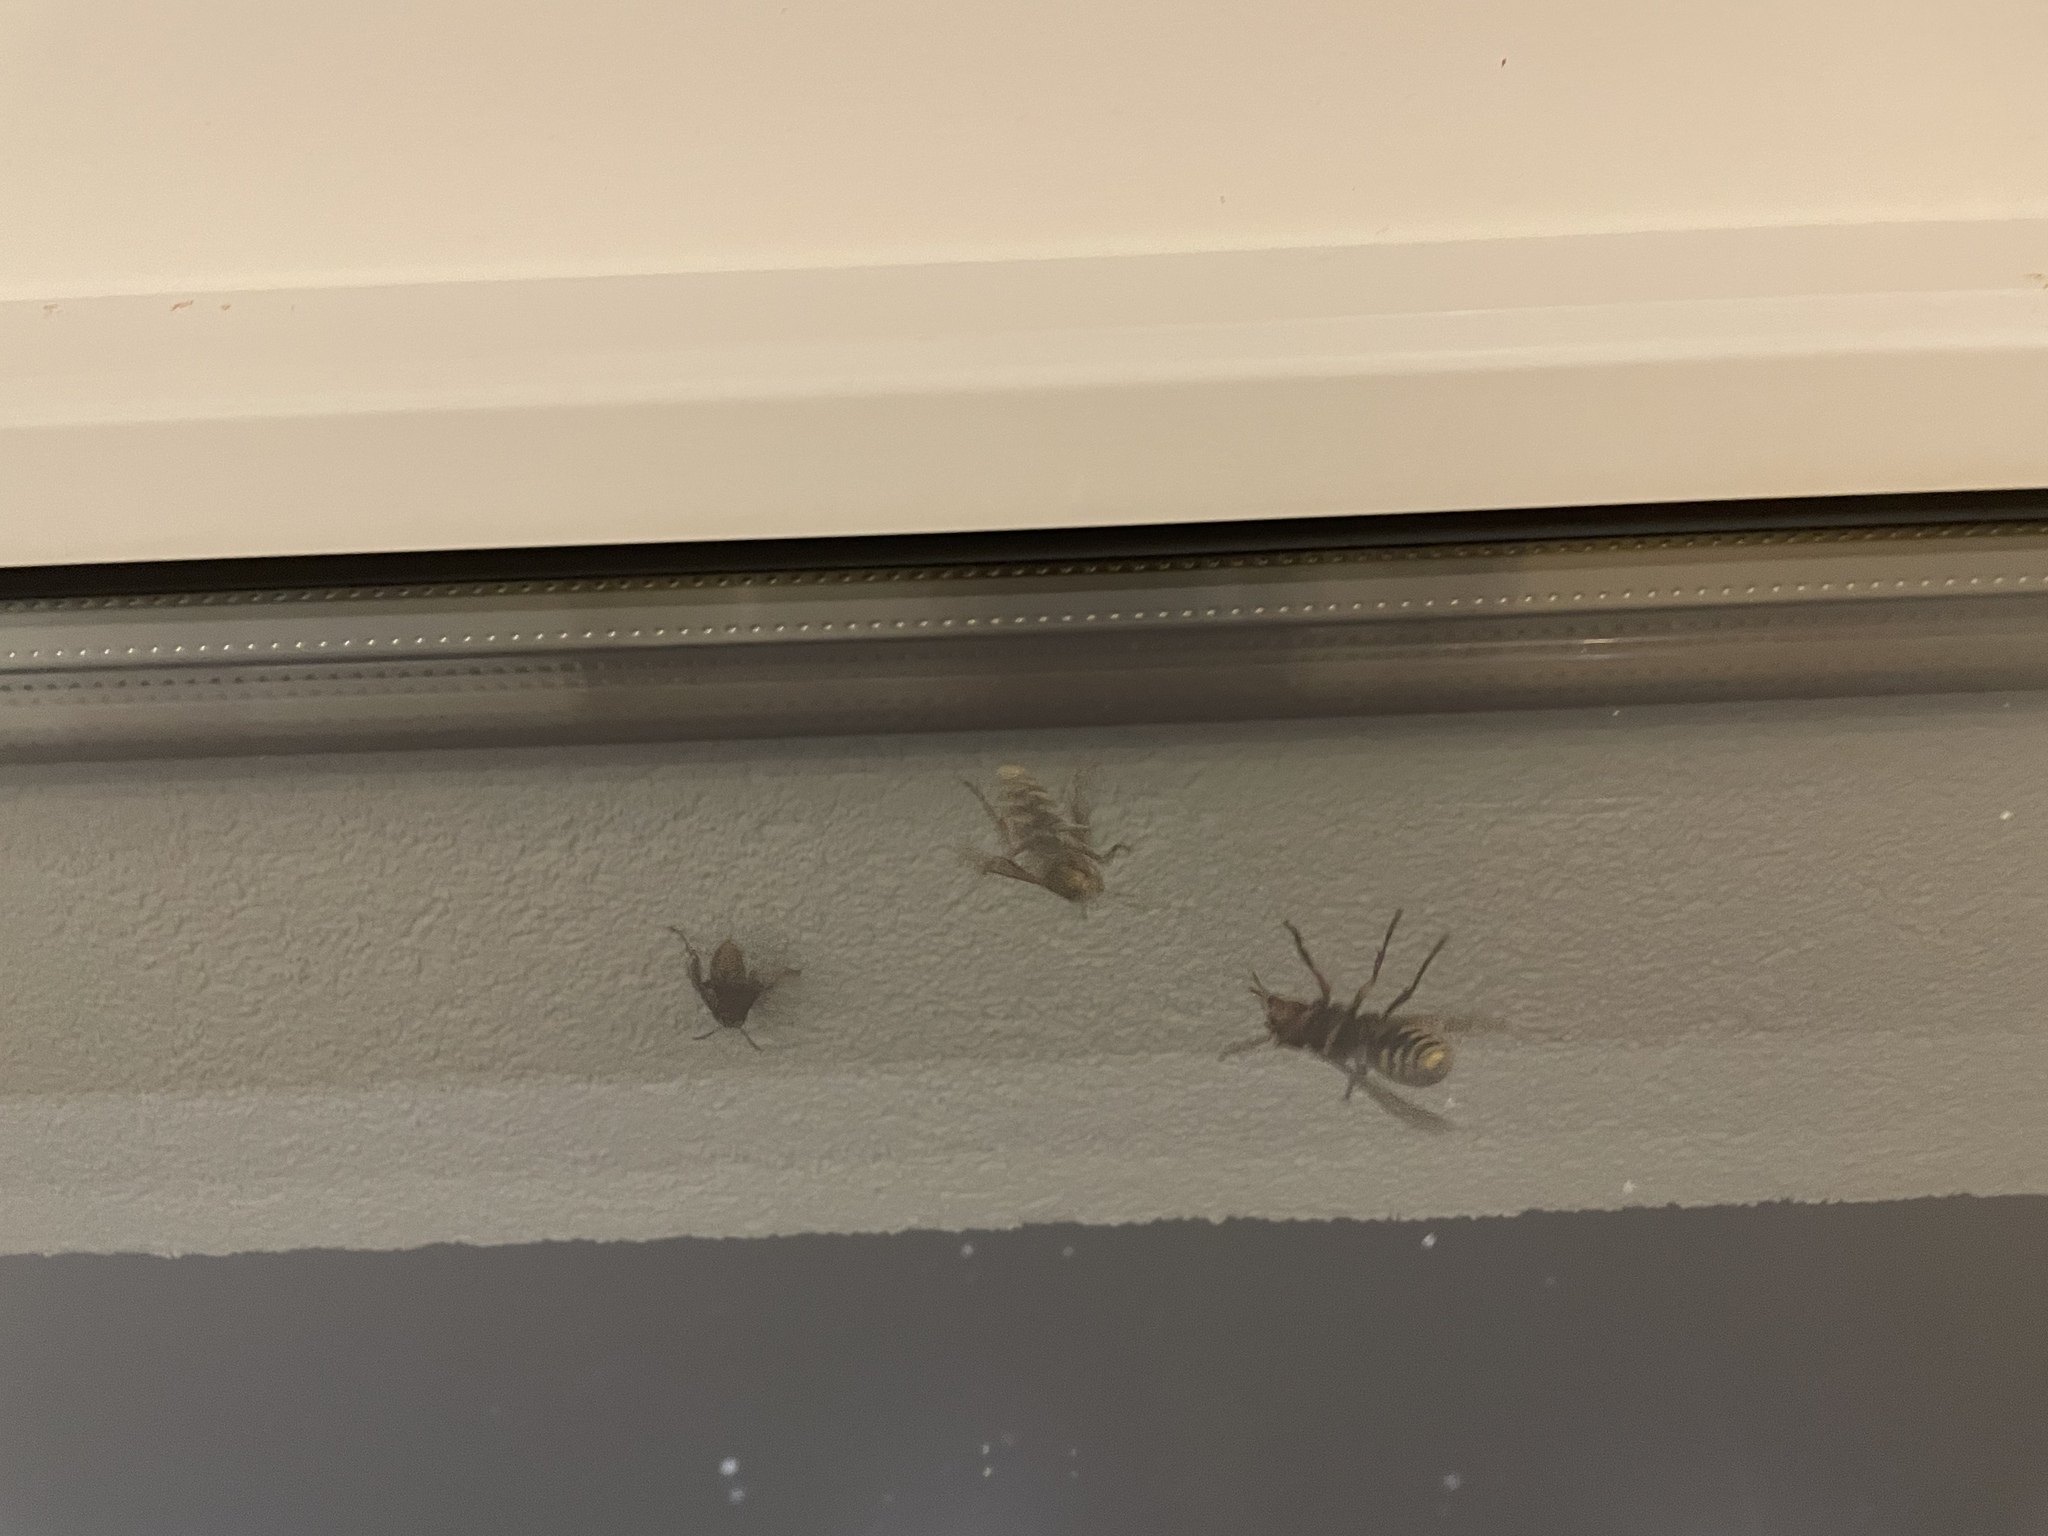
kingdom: Animalia
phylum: Arthropoda
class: Insecta
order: Hymenoptera
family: Vespidae
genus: Vespa
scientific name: Vespa crabro
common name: Hornet
